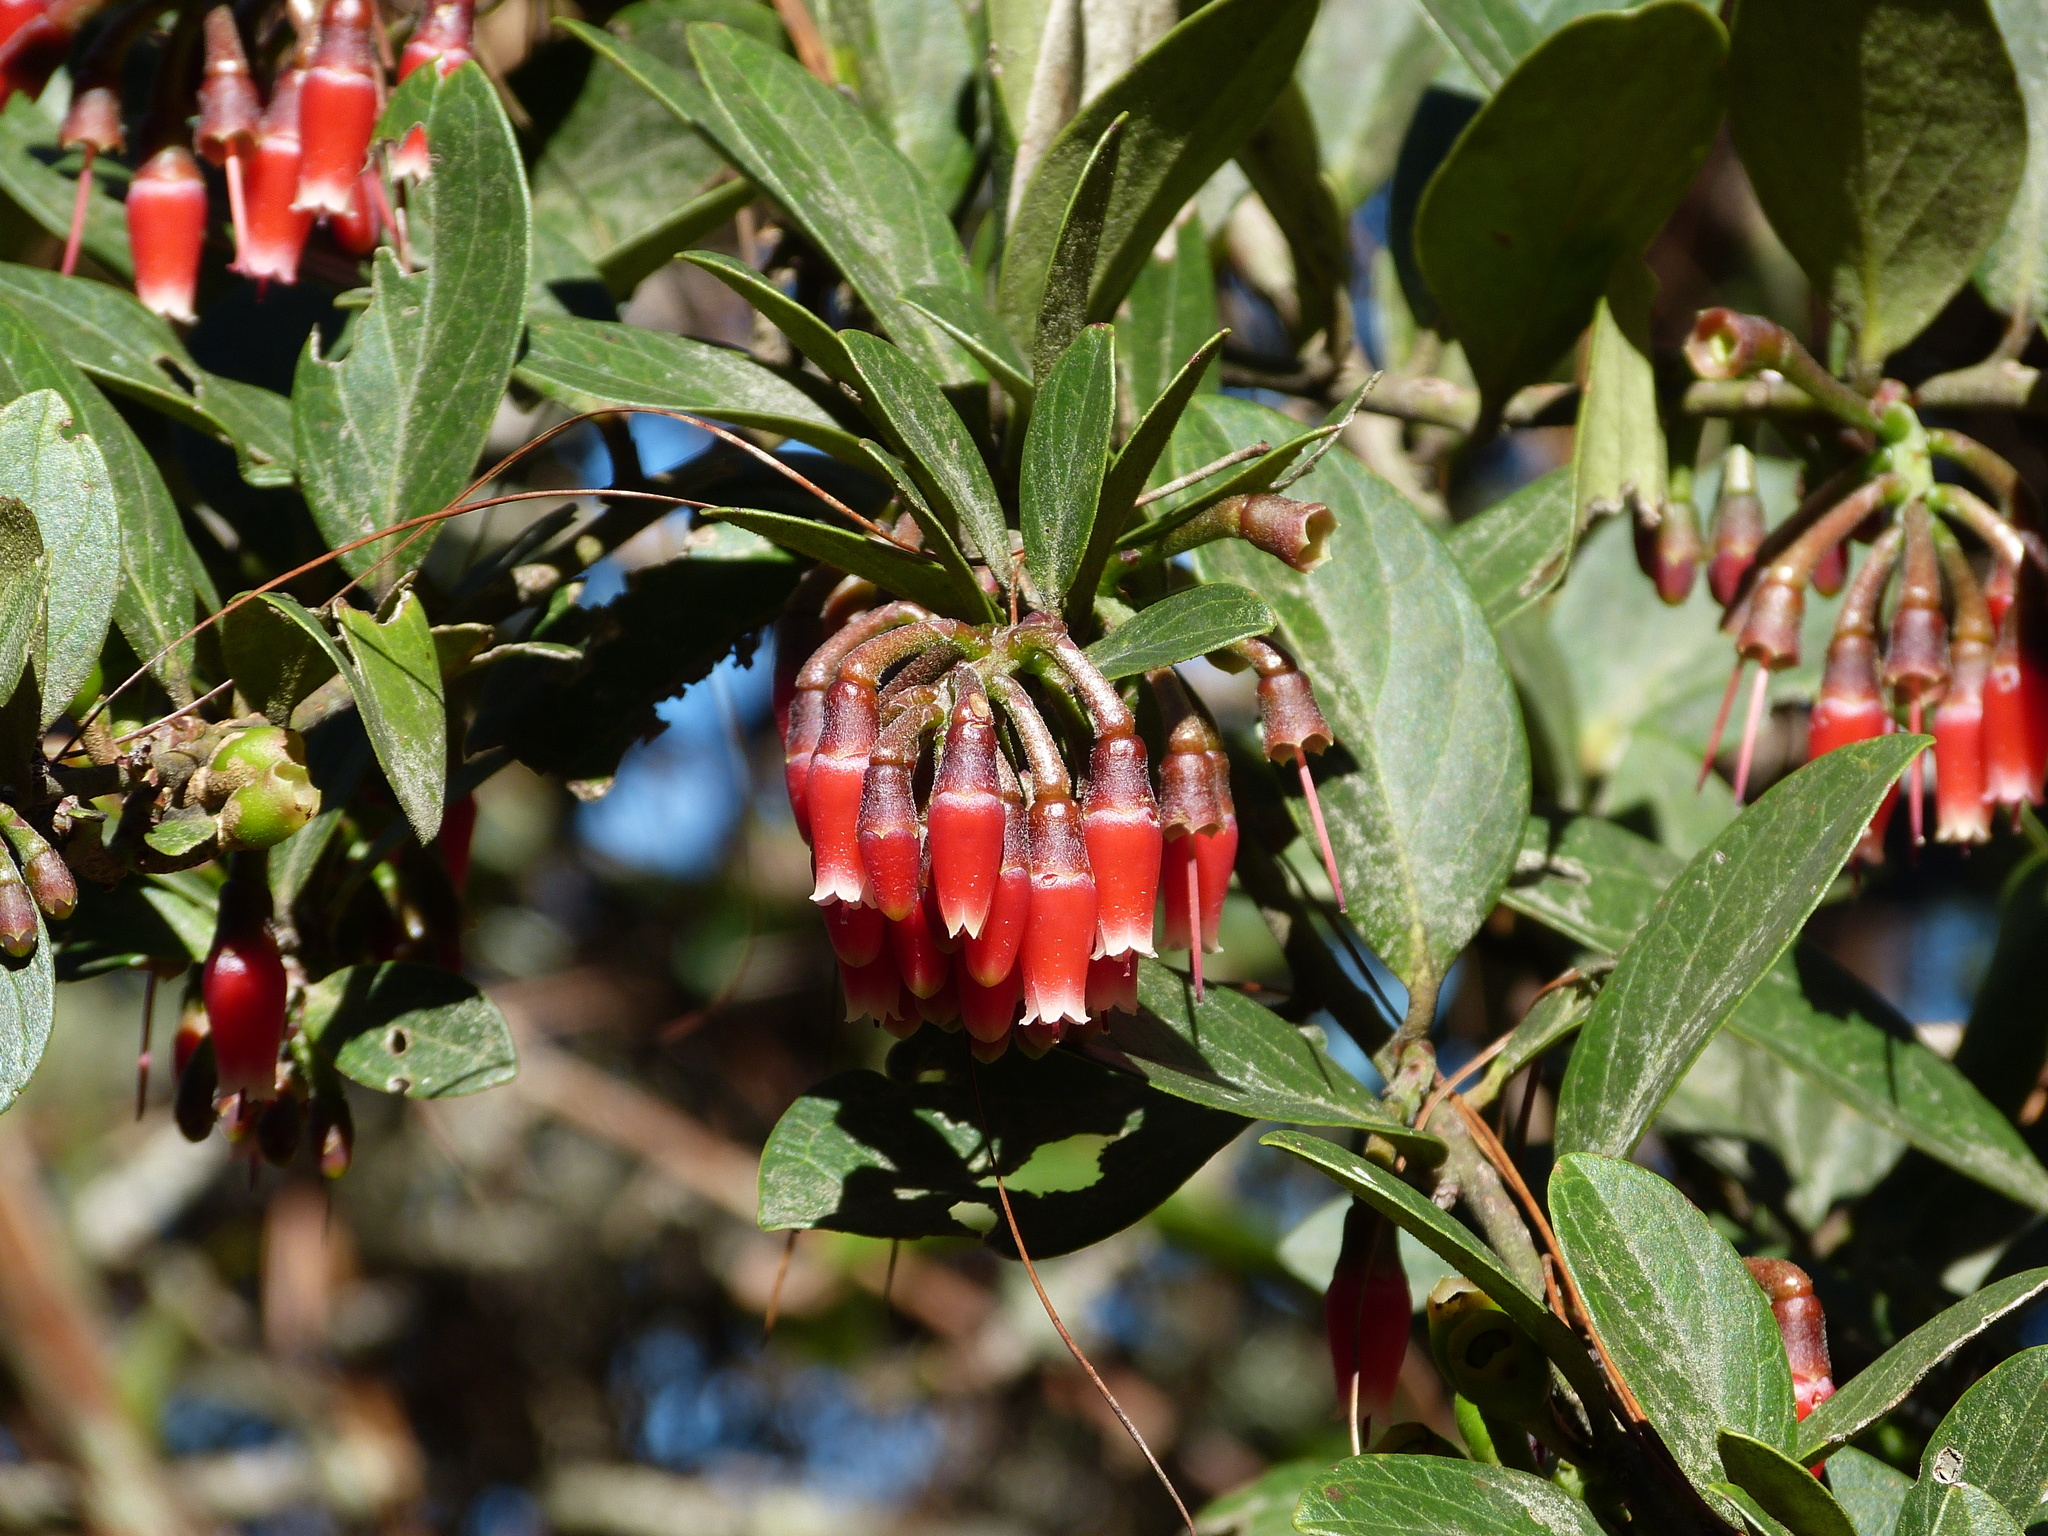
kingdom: Plantae
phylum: Tracheophyta
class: Magnoliopsida
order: Ericales
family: Ericaceae
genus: Macleania
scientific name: Macleania robusta
